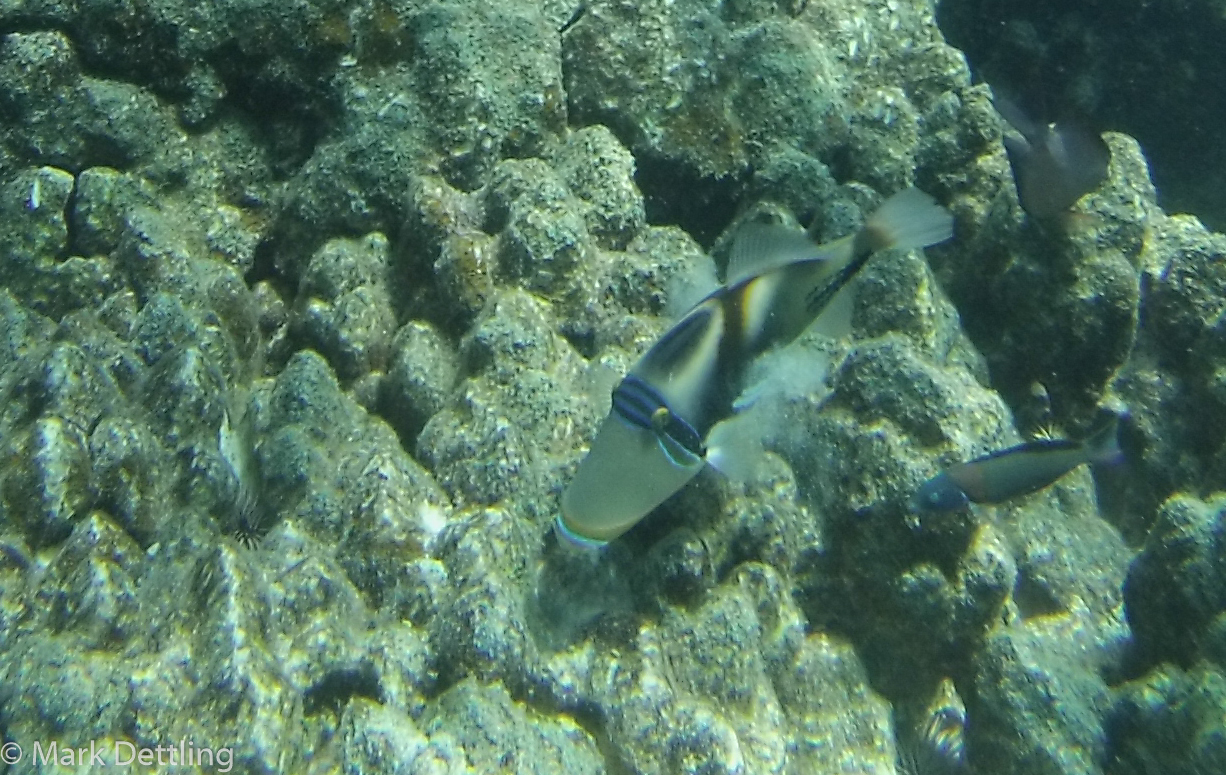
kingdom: Animalia
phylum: Chordata
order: Tetraodontiformes
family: Balistidae
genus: Rhinecanthus
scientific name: Rhinecanthus aculeatus
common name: White-banded triggerfish
